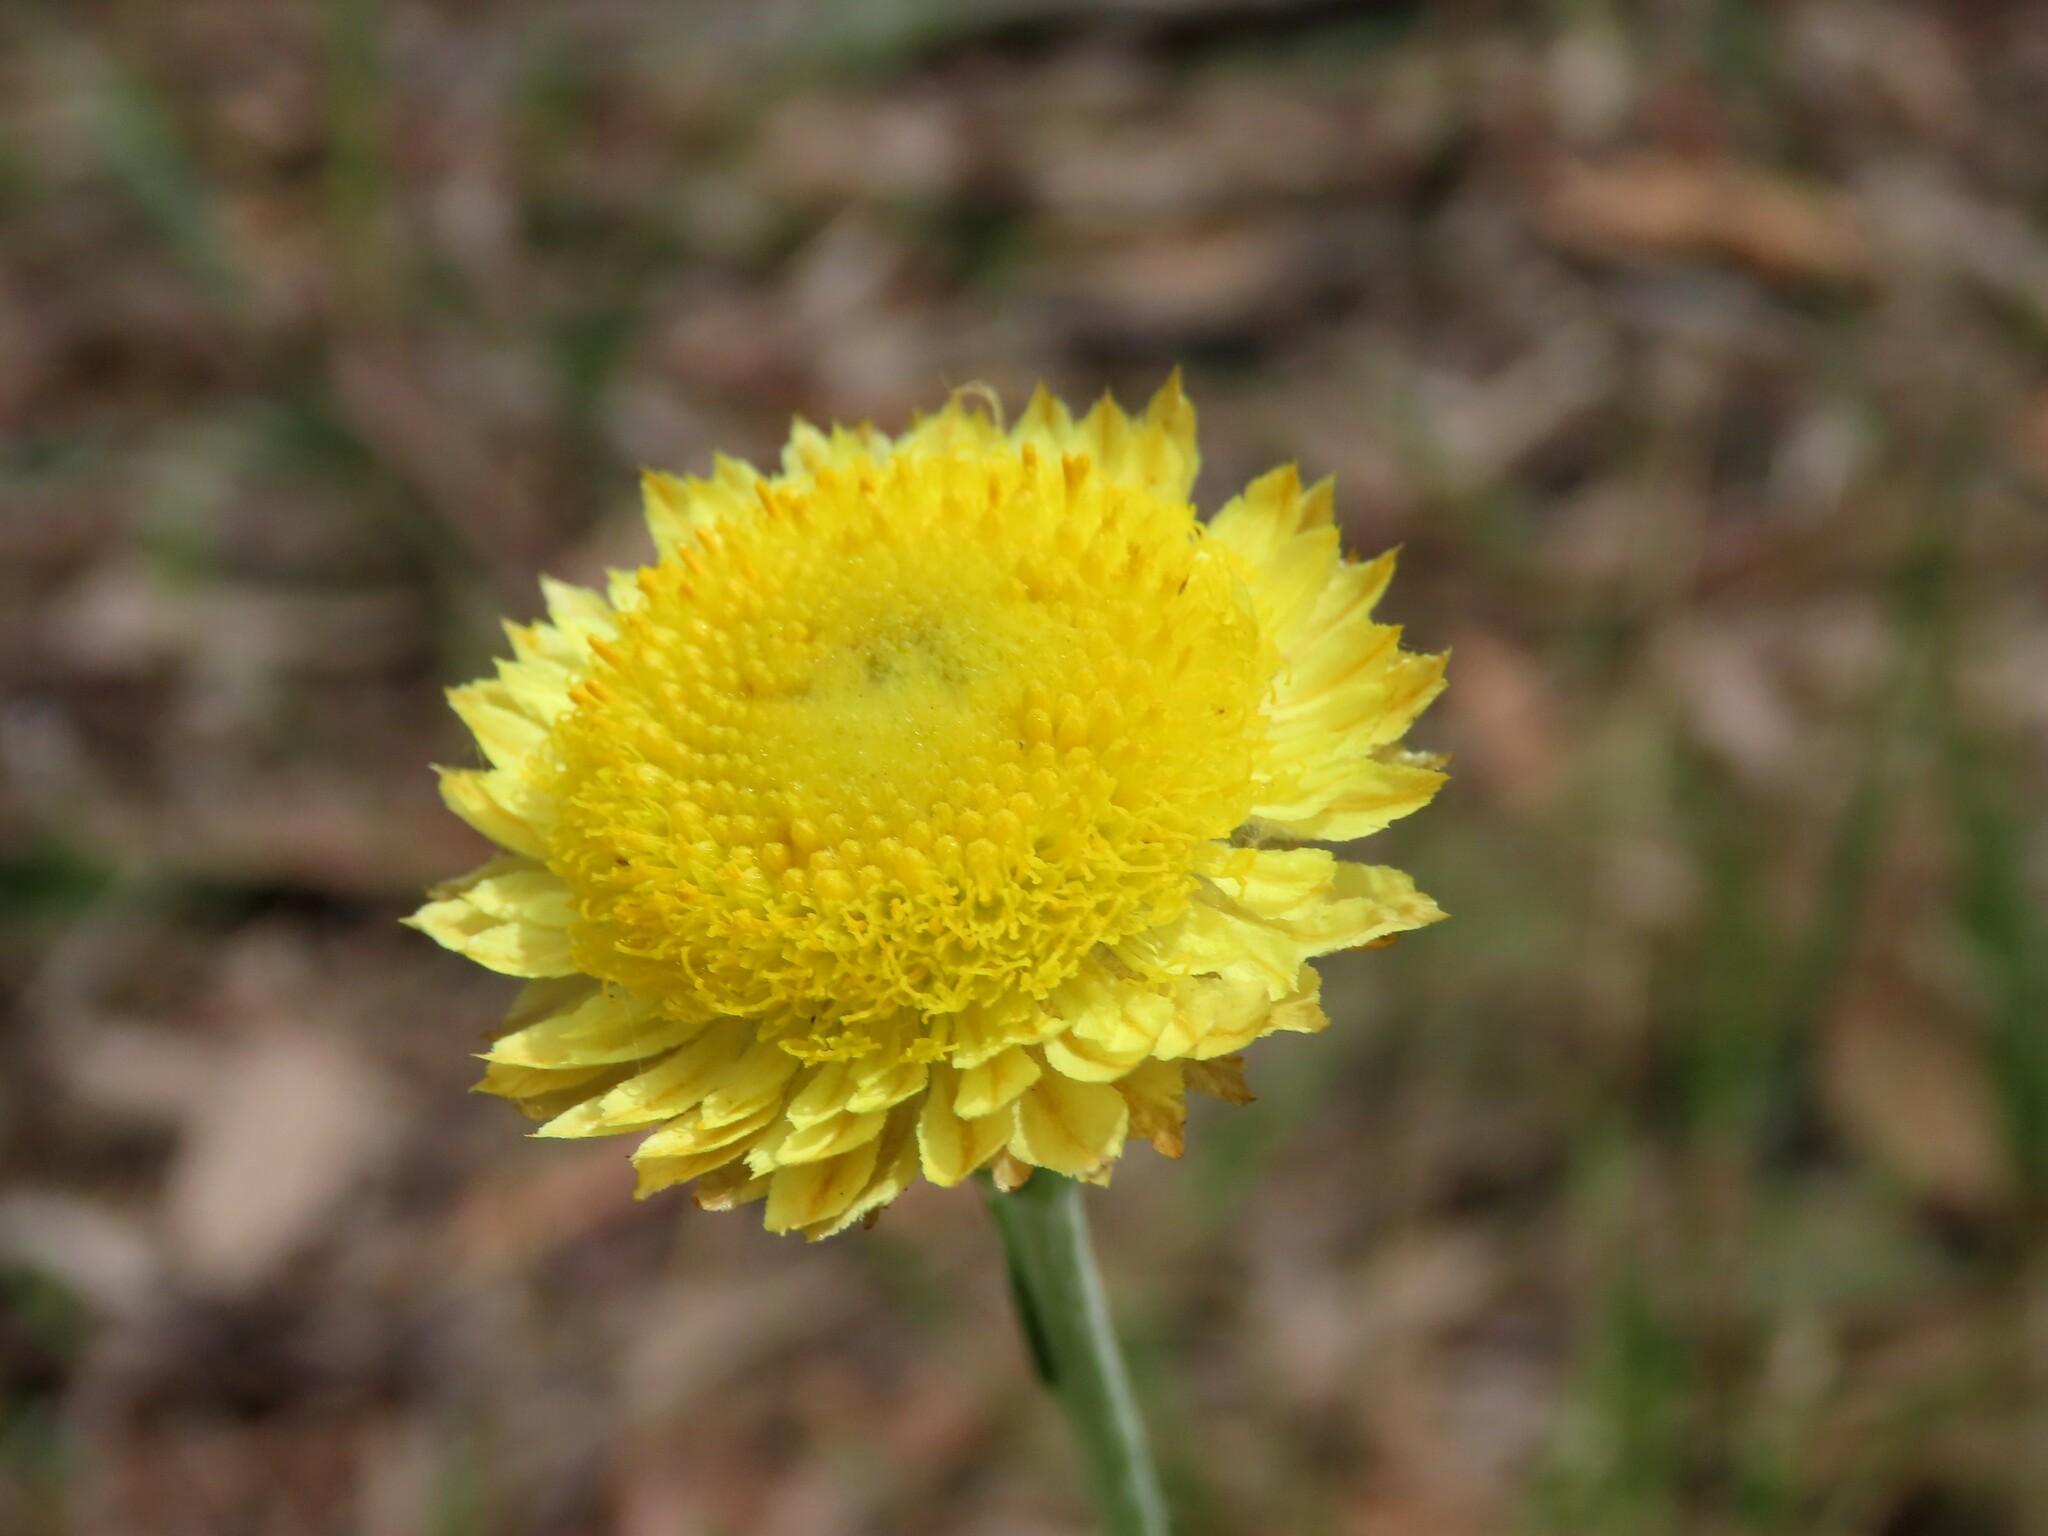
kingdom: Plantae
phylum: Tracheophyta
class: Magnoliopsida
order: Asterales
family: Asteraceae
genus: Coronidium
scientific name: Coronidium scorpioides
